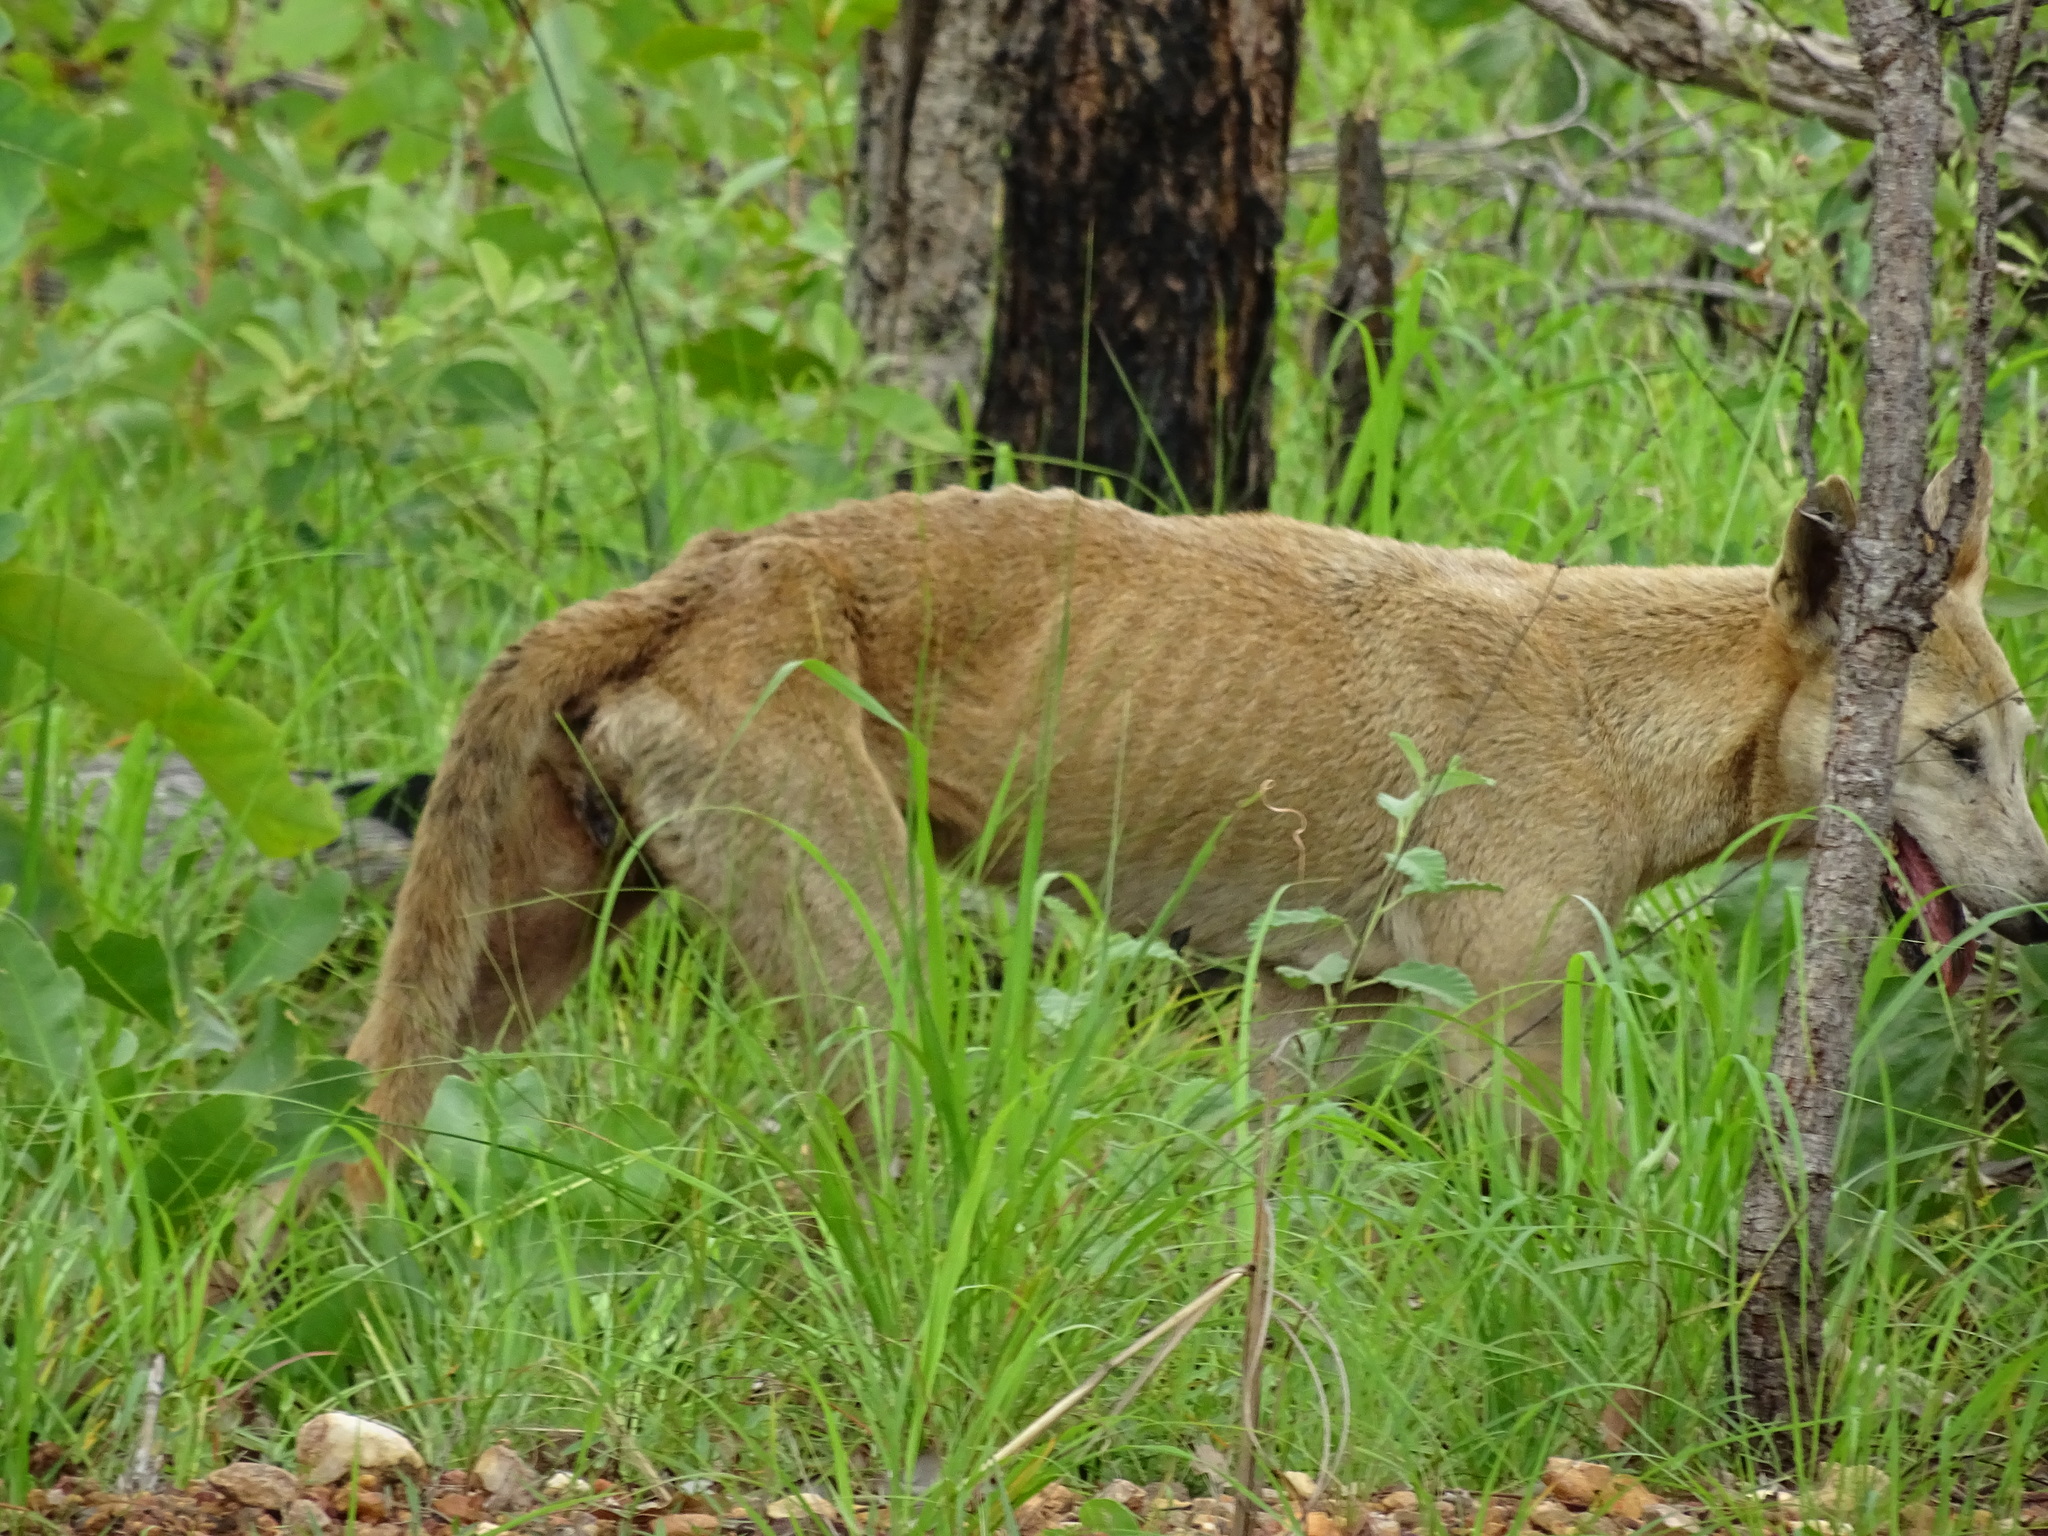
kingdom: Animalia
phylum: Chordata
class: Mammalia
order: Carnivora
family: Canidae
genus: Canis
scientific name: Canis lupus
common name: Gray wolf
